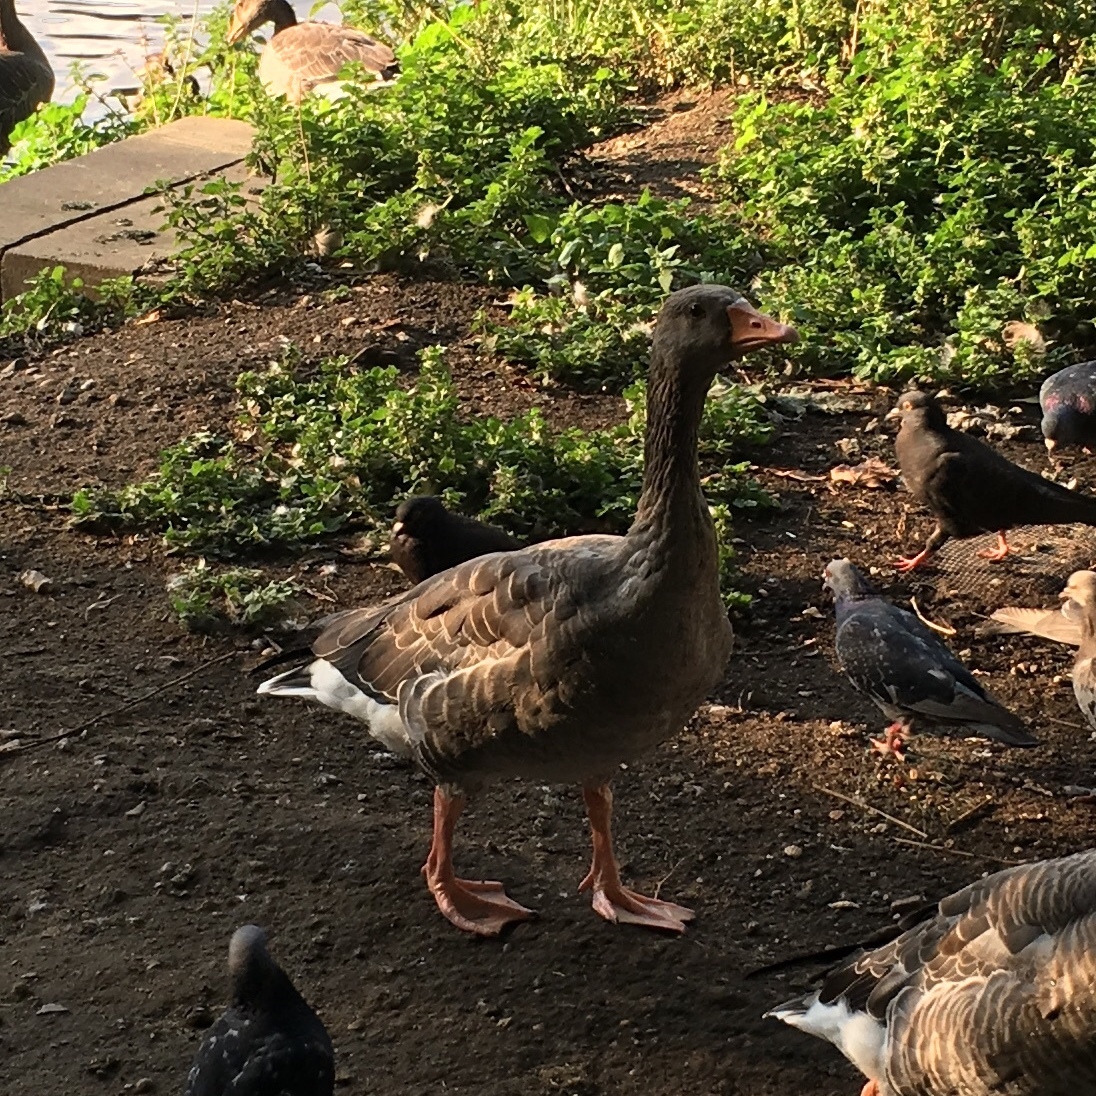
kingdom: Animalia
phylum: Chordata
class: Aves
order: Anseriformes
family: Anatidae
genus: Anser
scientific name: Anser anser
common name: Greylag goose
